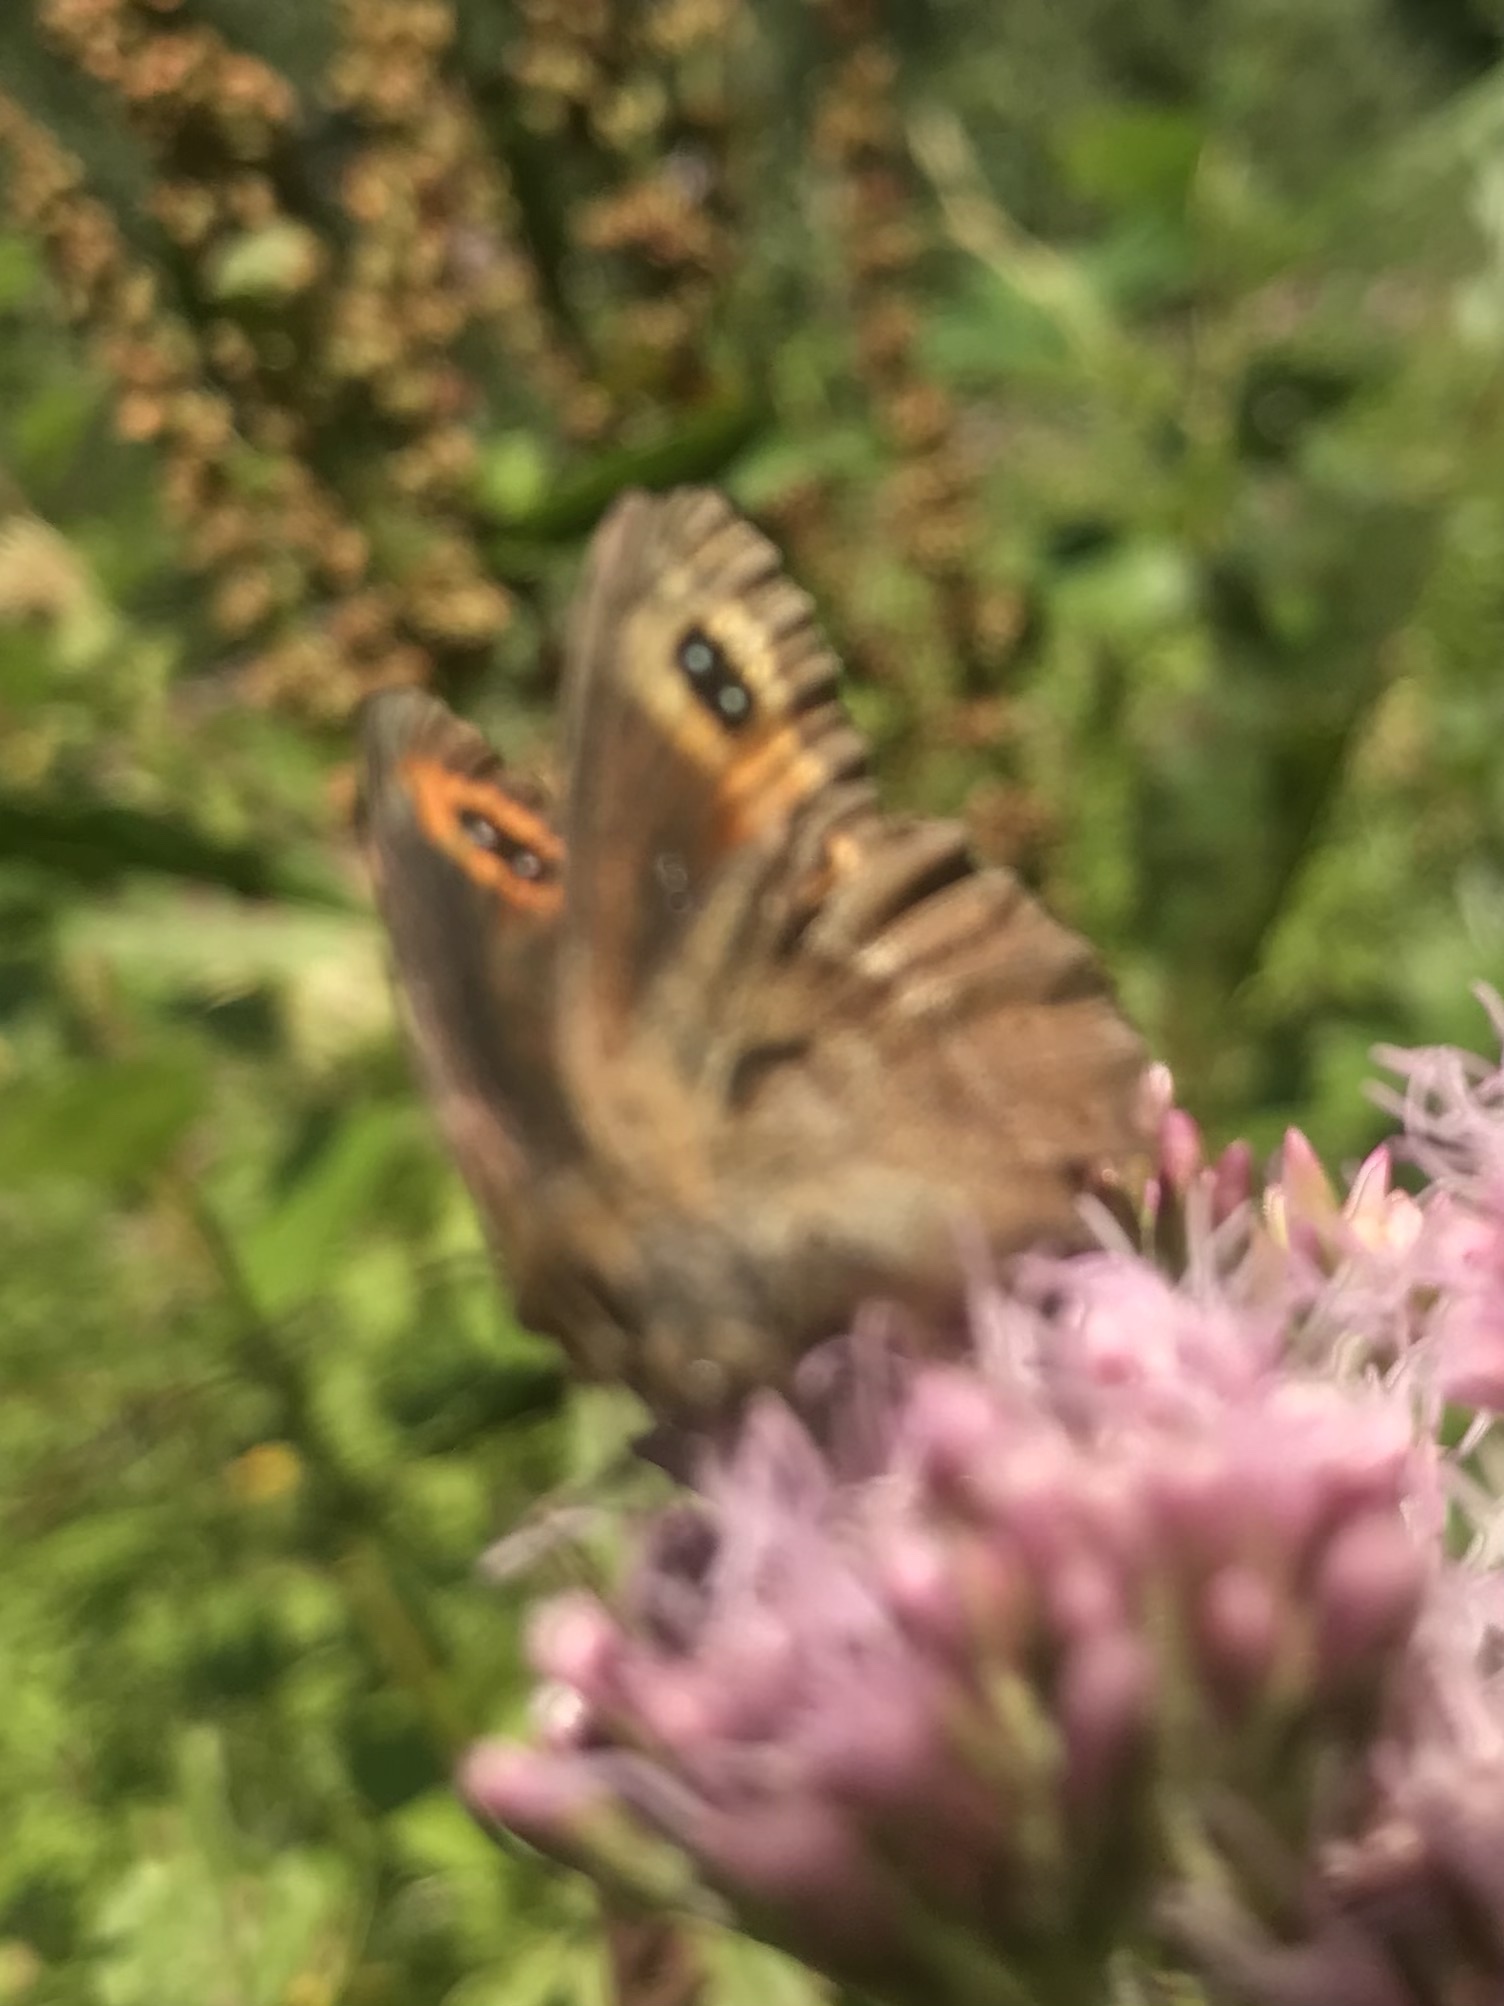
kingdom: Animalia
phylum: Arthropoda
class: Insecta
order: Lepidoptera
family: Nymphalidae
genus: Erebia
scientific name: Erebia aethiops
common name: Scotch argus
